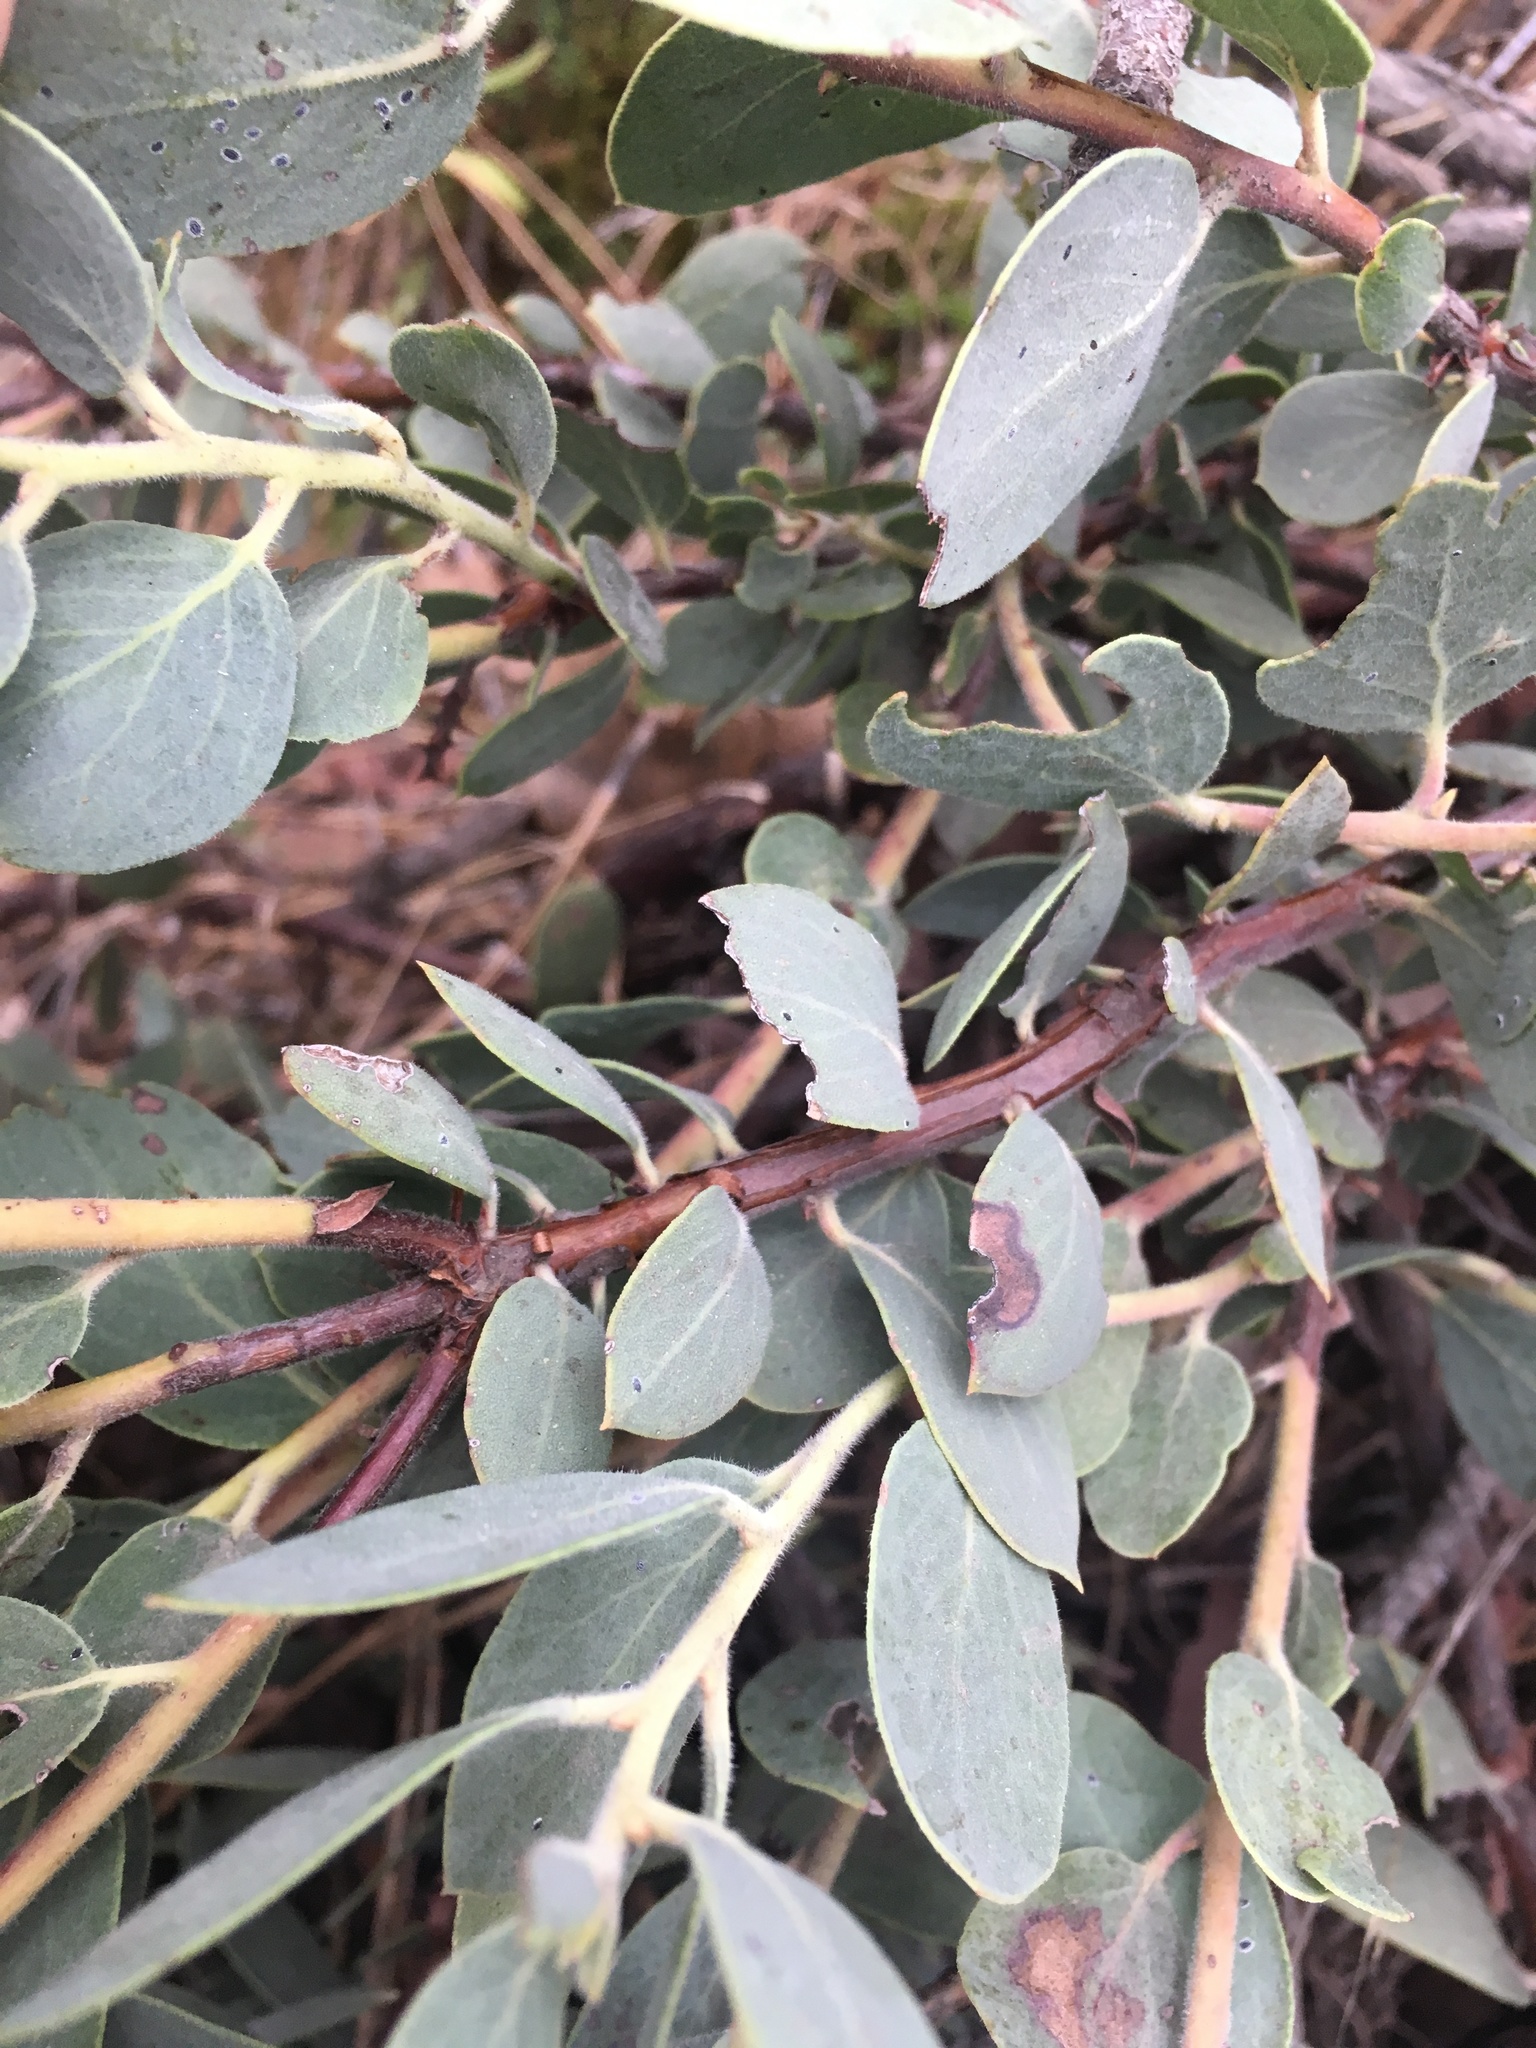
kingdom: Plantae
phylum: Tracheophyta
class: Magnoliopsida
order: Ericales
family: Ericaceae
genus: Arctostaphylos
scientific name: Arctostaphylos nissenana
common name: Nissenan manzanita
